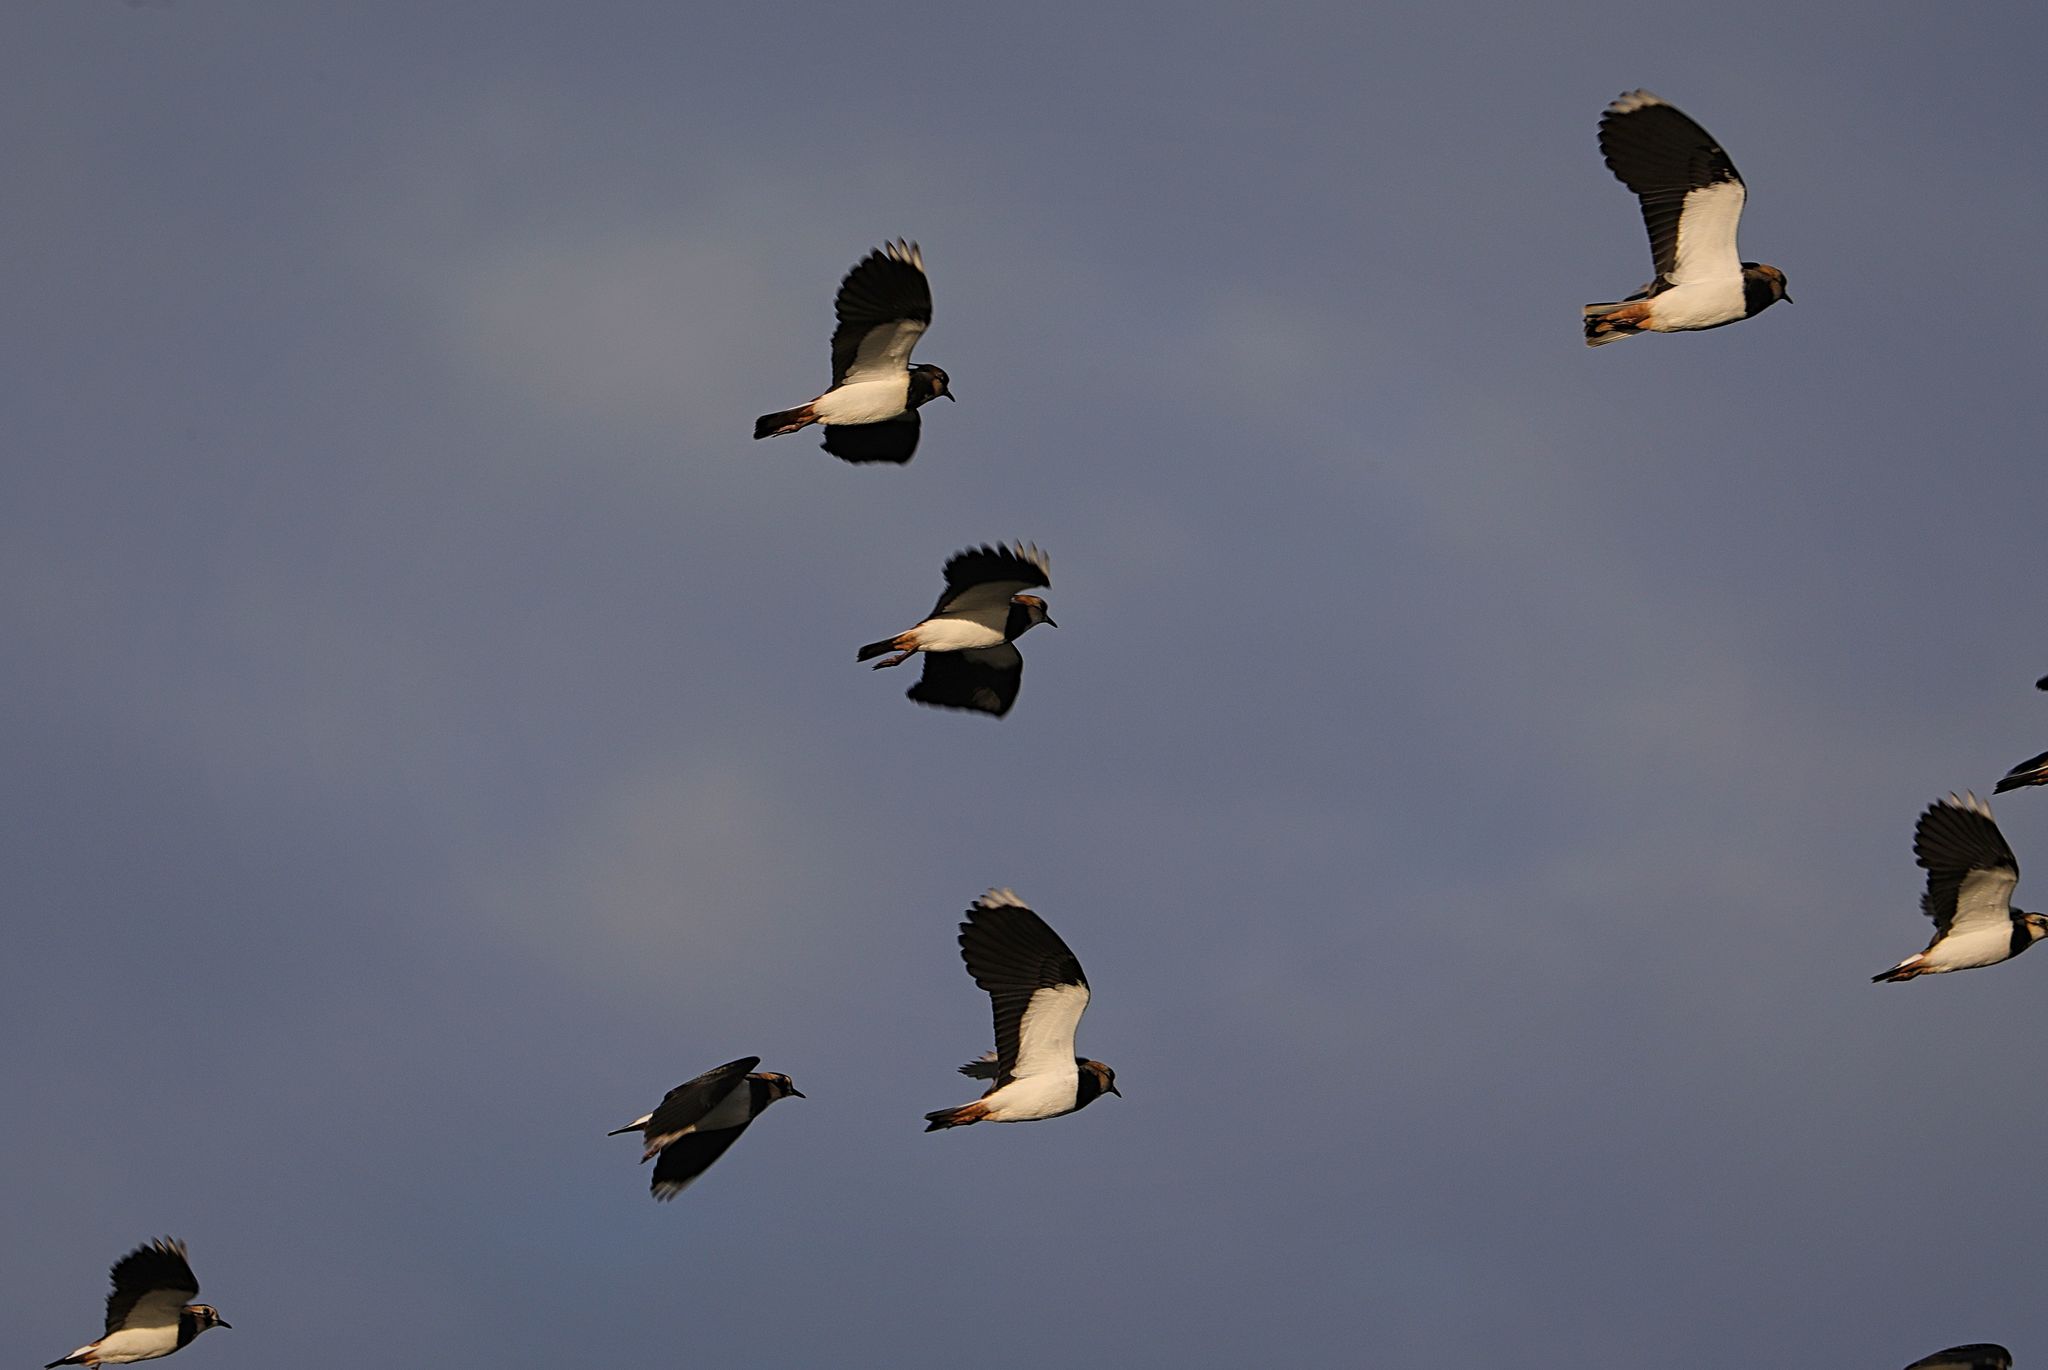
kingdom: Animalia
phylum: Chordata
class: Aves
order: Charadriiformes
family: Charadriidae
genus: Vanellus
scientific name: Vanellus vanellus
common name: Northern lapwing
